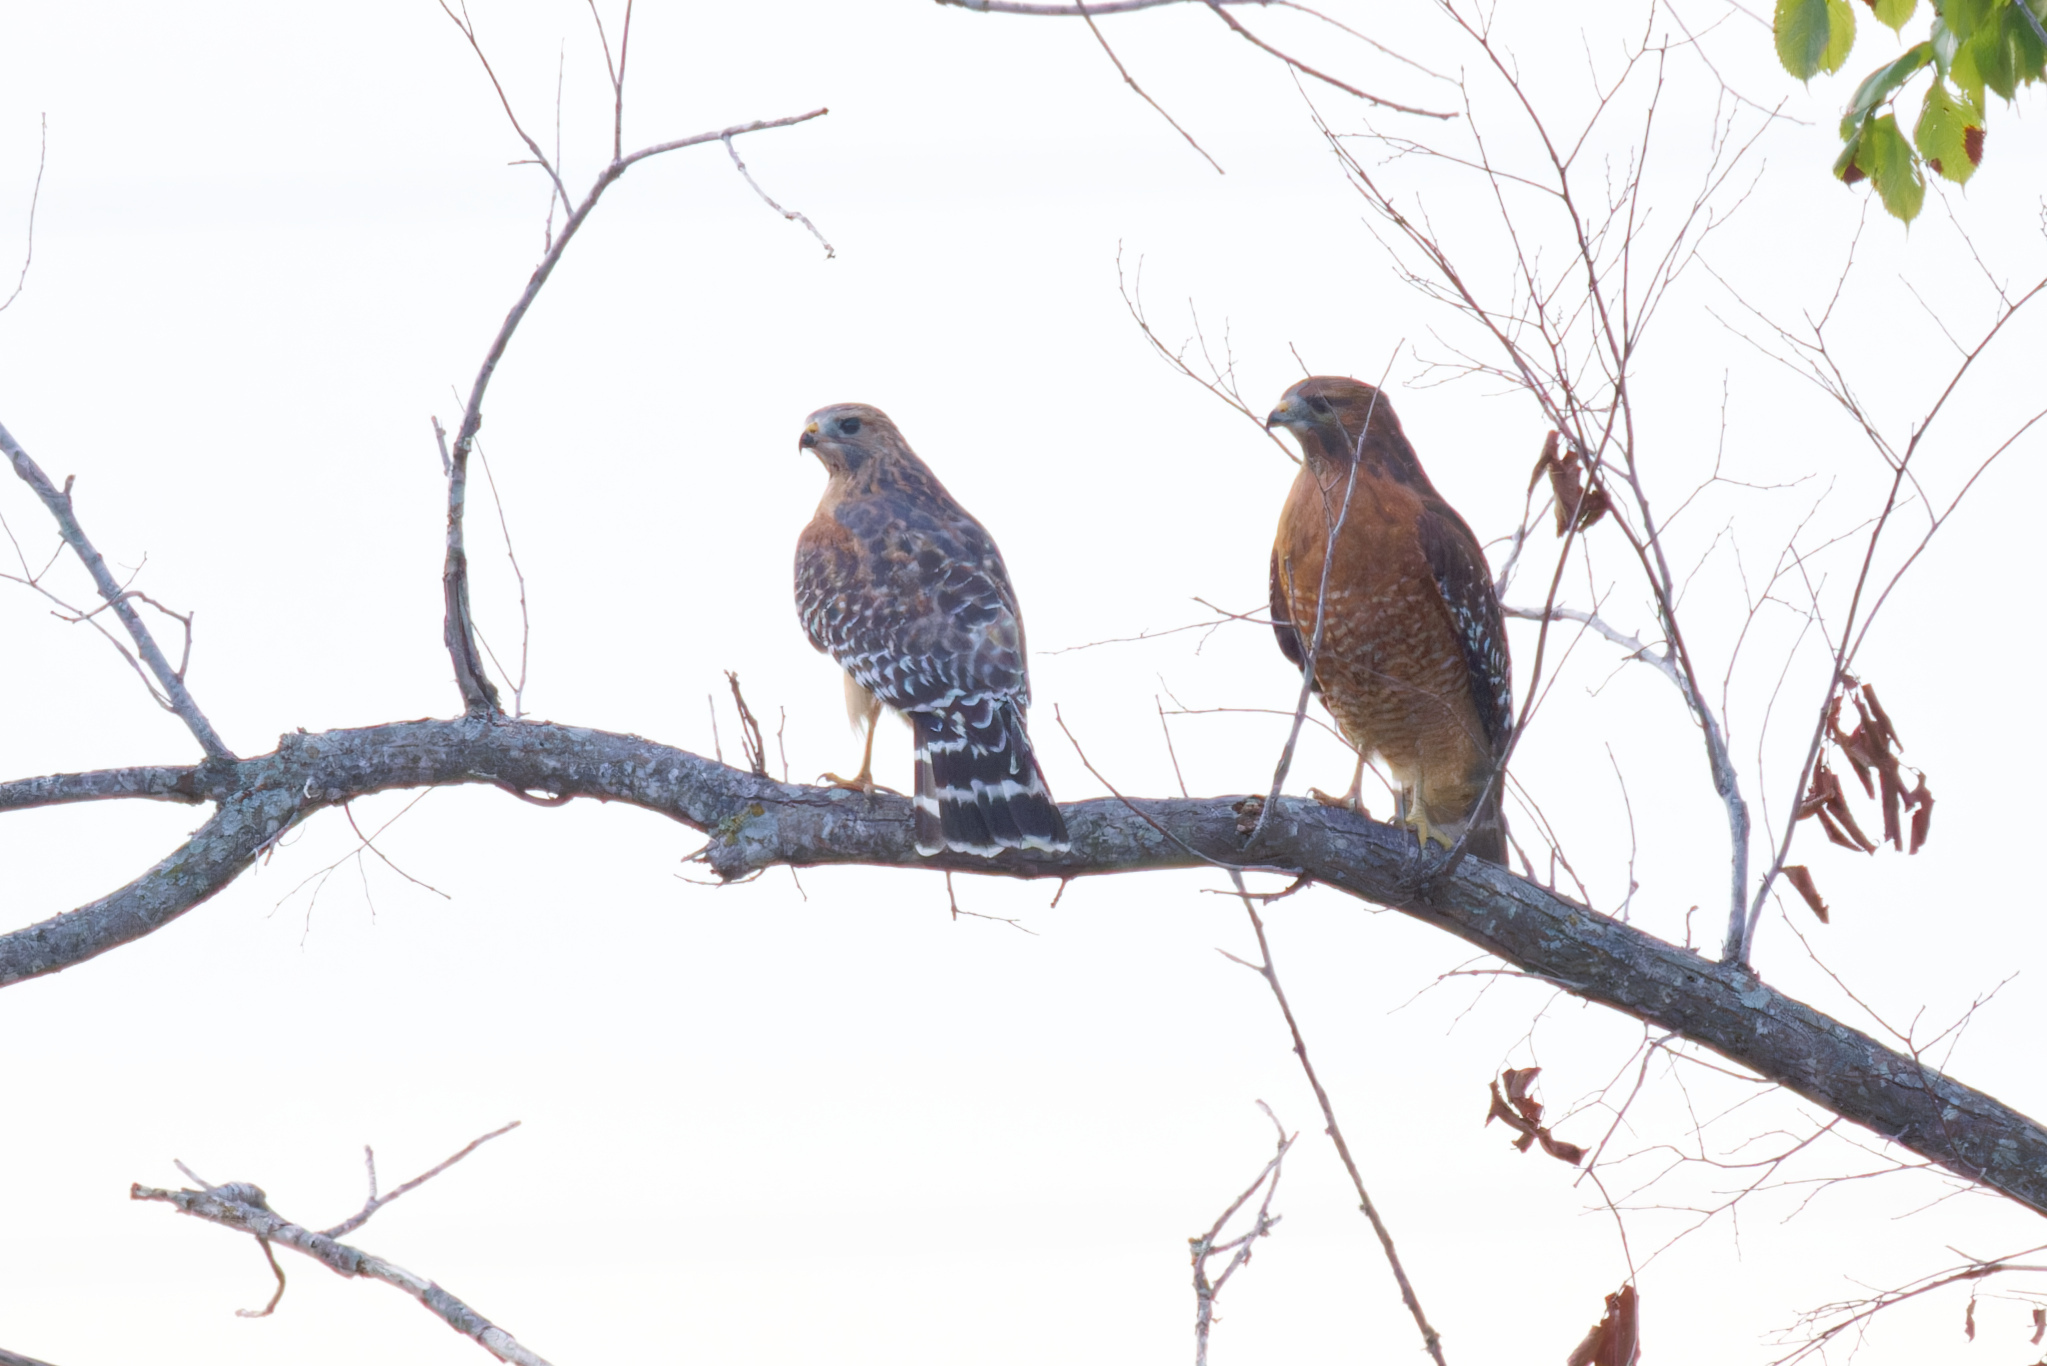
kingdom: Animalia
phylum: Chordata
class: Aves
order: Accipitriformes
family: Accipitridae
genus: Buteo
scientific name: Buteo lineatus
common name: Red-shouldered hawk
